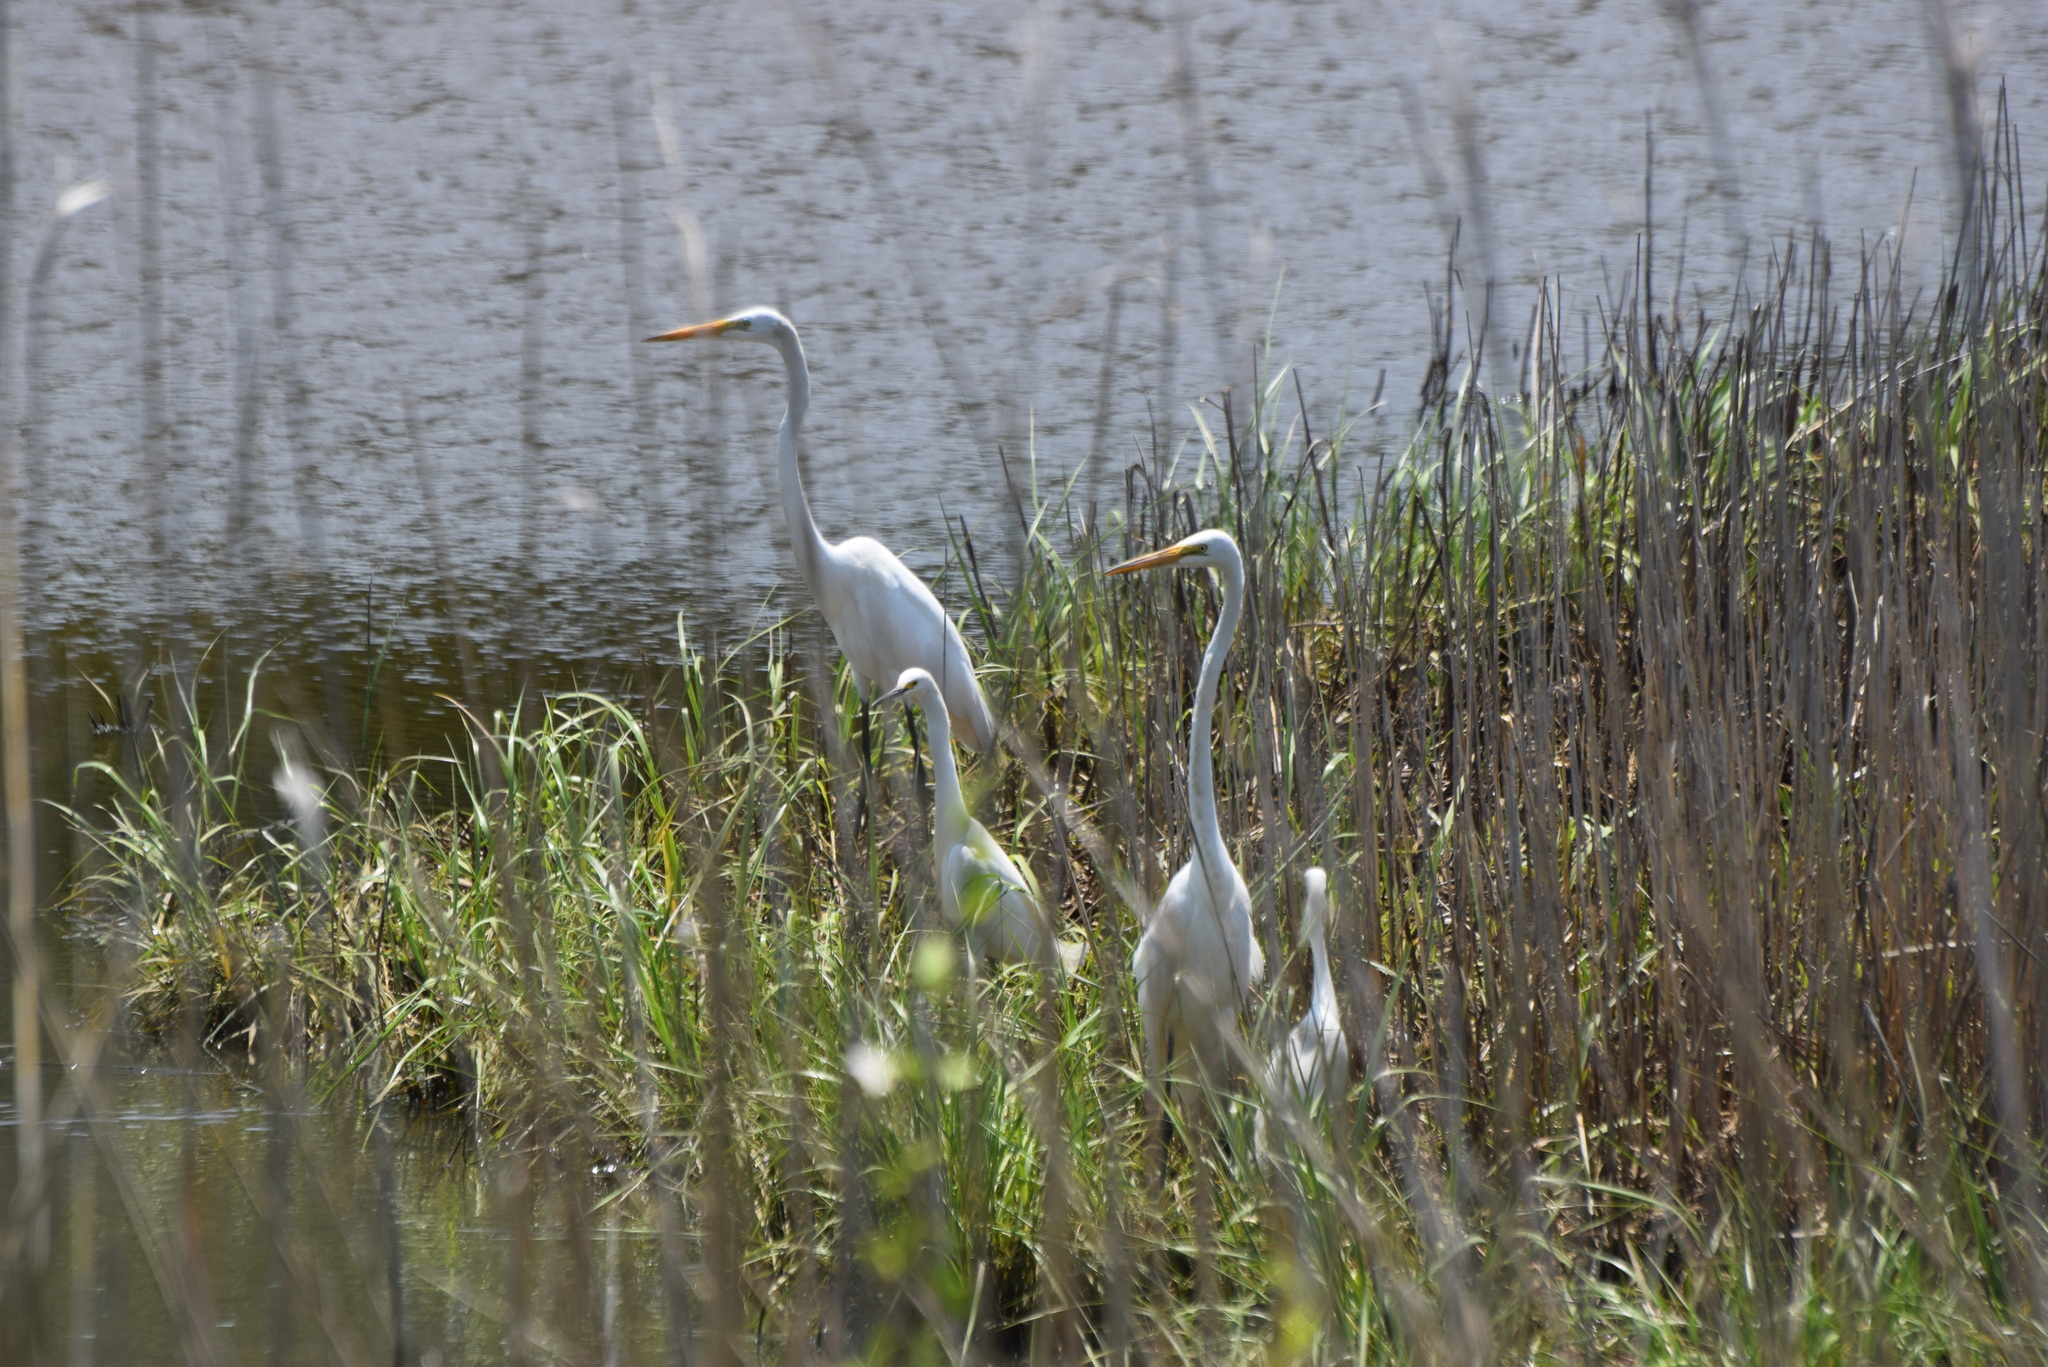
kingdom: Animalia
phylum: Chordata
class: Aves
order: Pelecaniformes
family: Ardeidae
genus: Ardea
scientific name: Ardea alba
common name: Great egret
